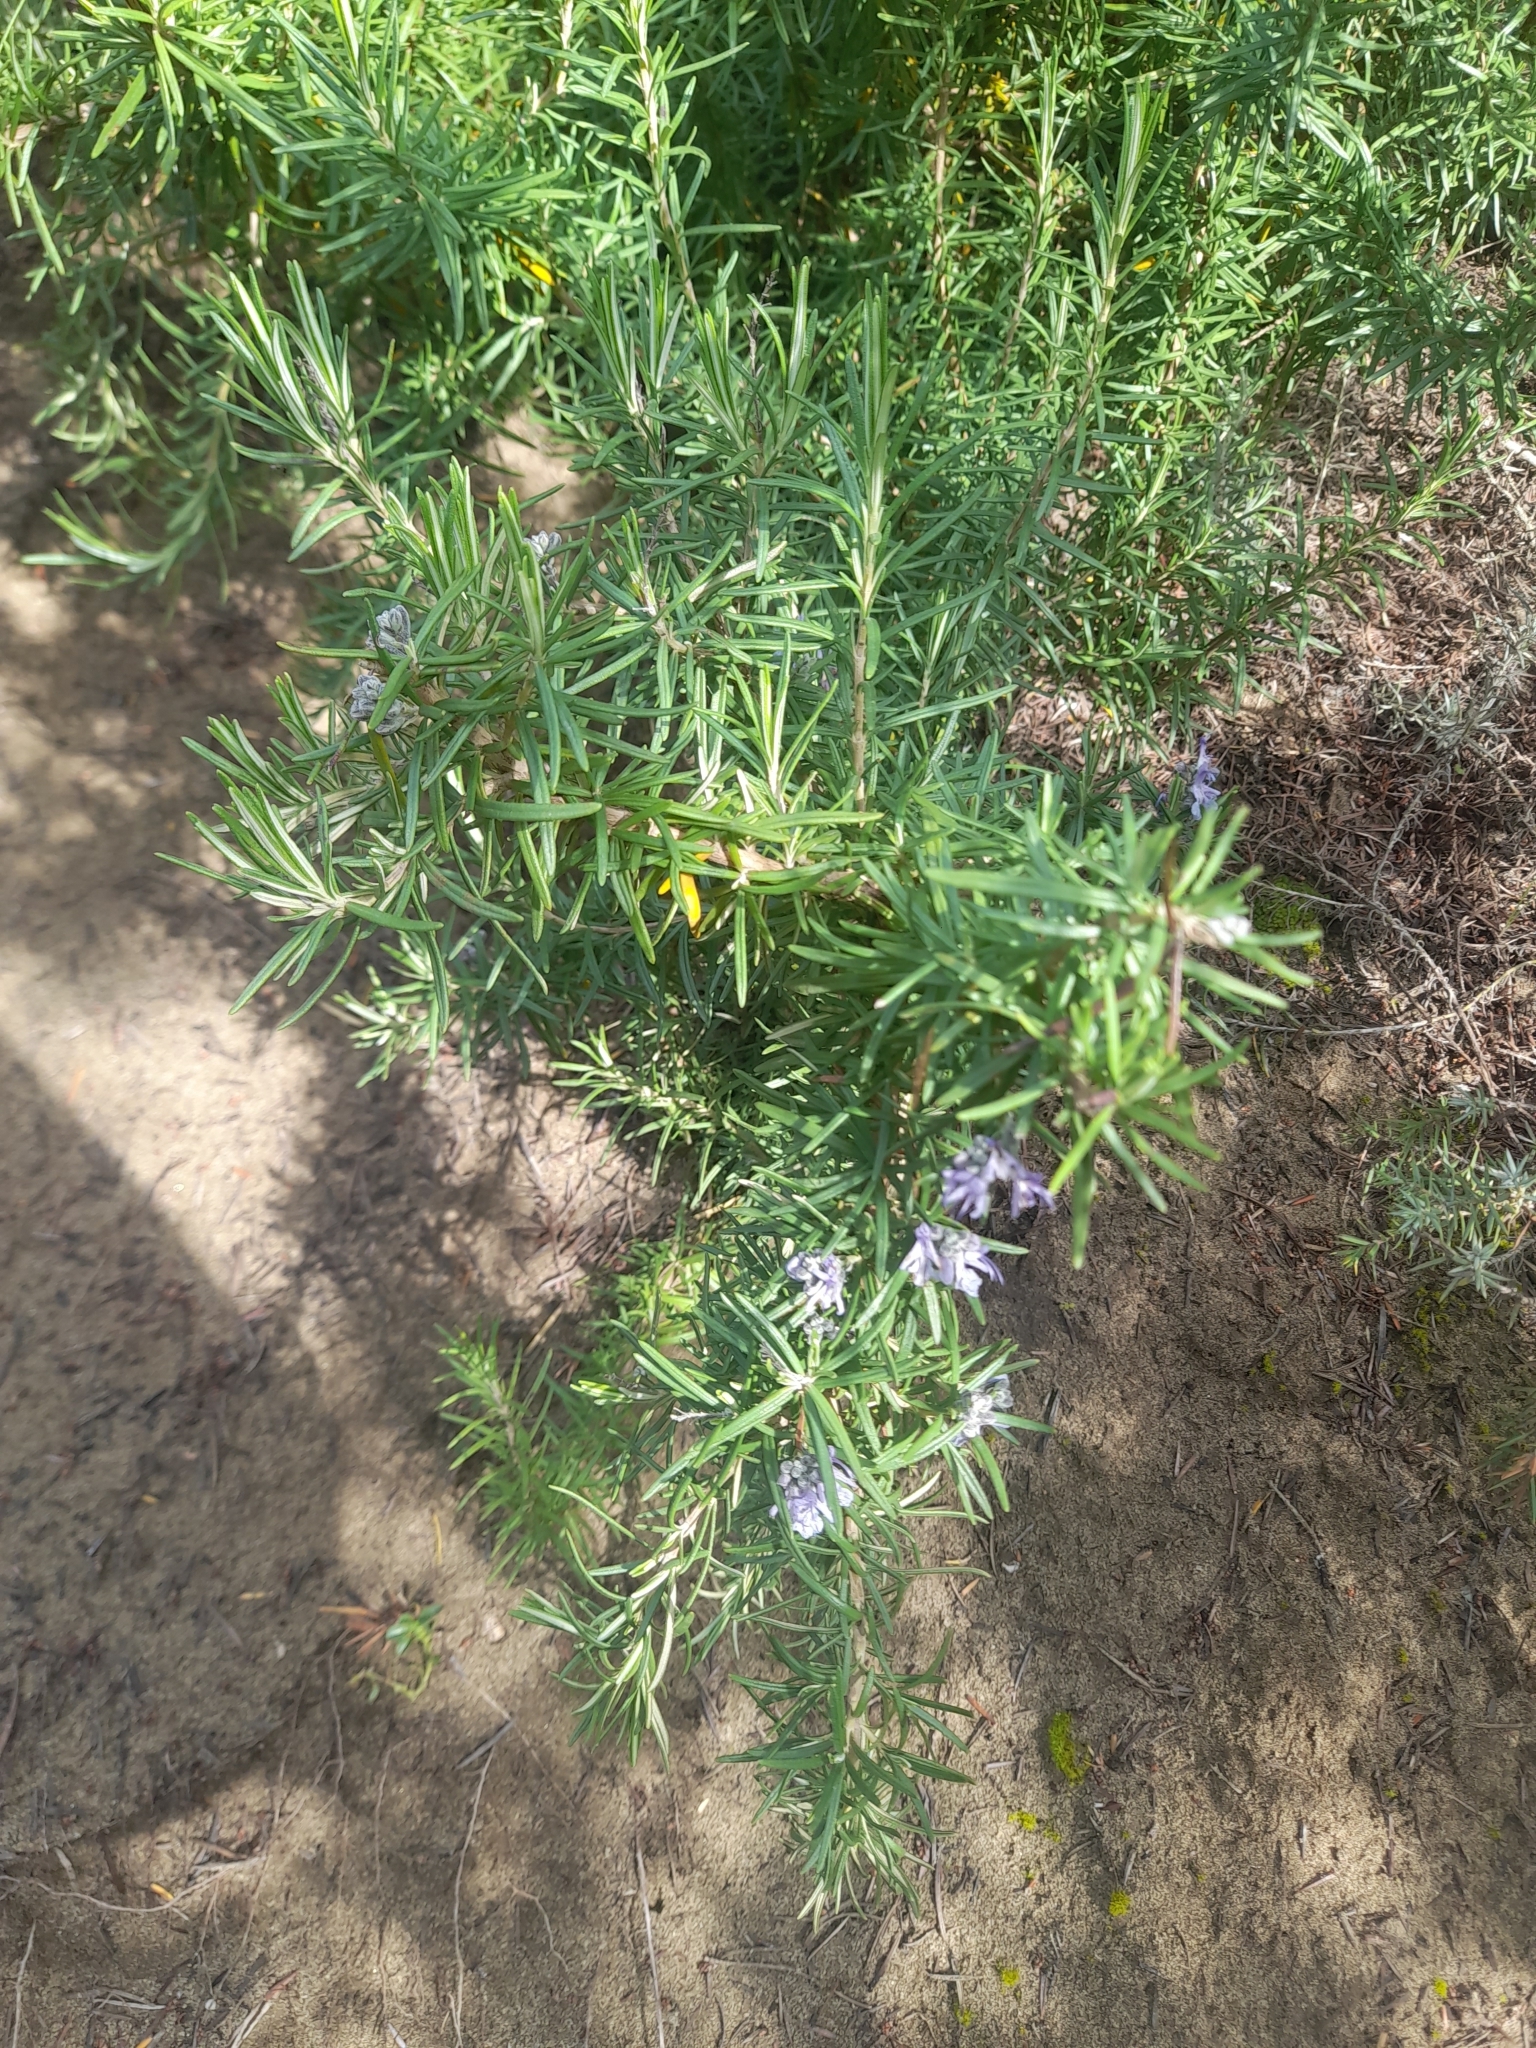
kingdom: Plantae
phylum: Tracheophyta
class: Magnoliopsida
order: Lamiales
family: Lamiaceae
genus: Salvia
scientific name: Salvia rosmarinus
